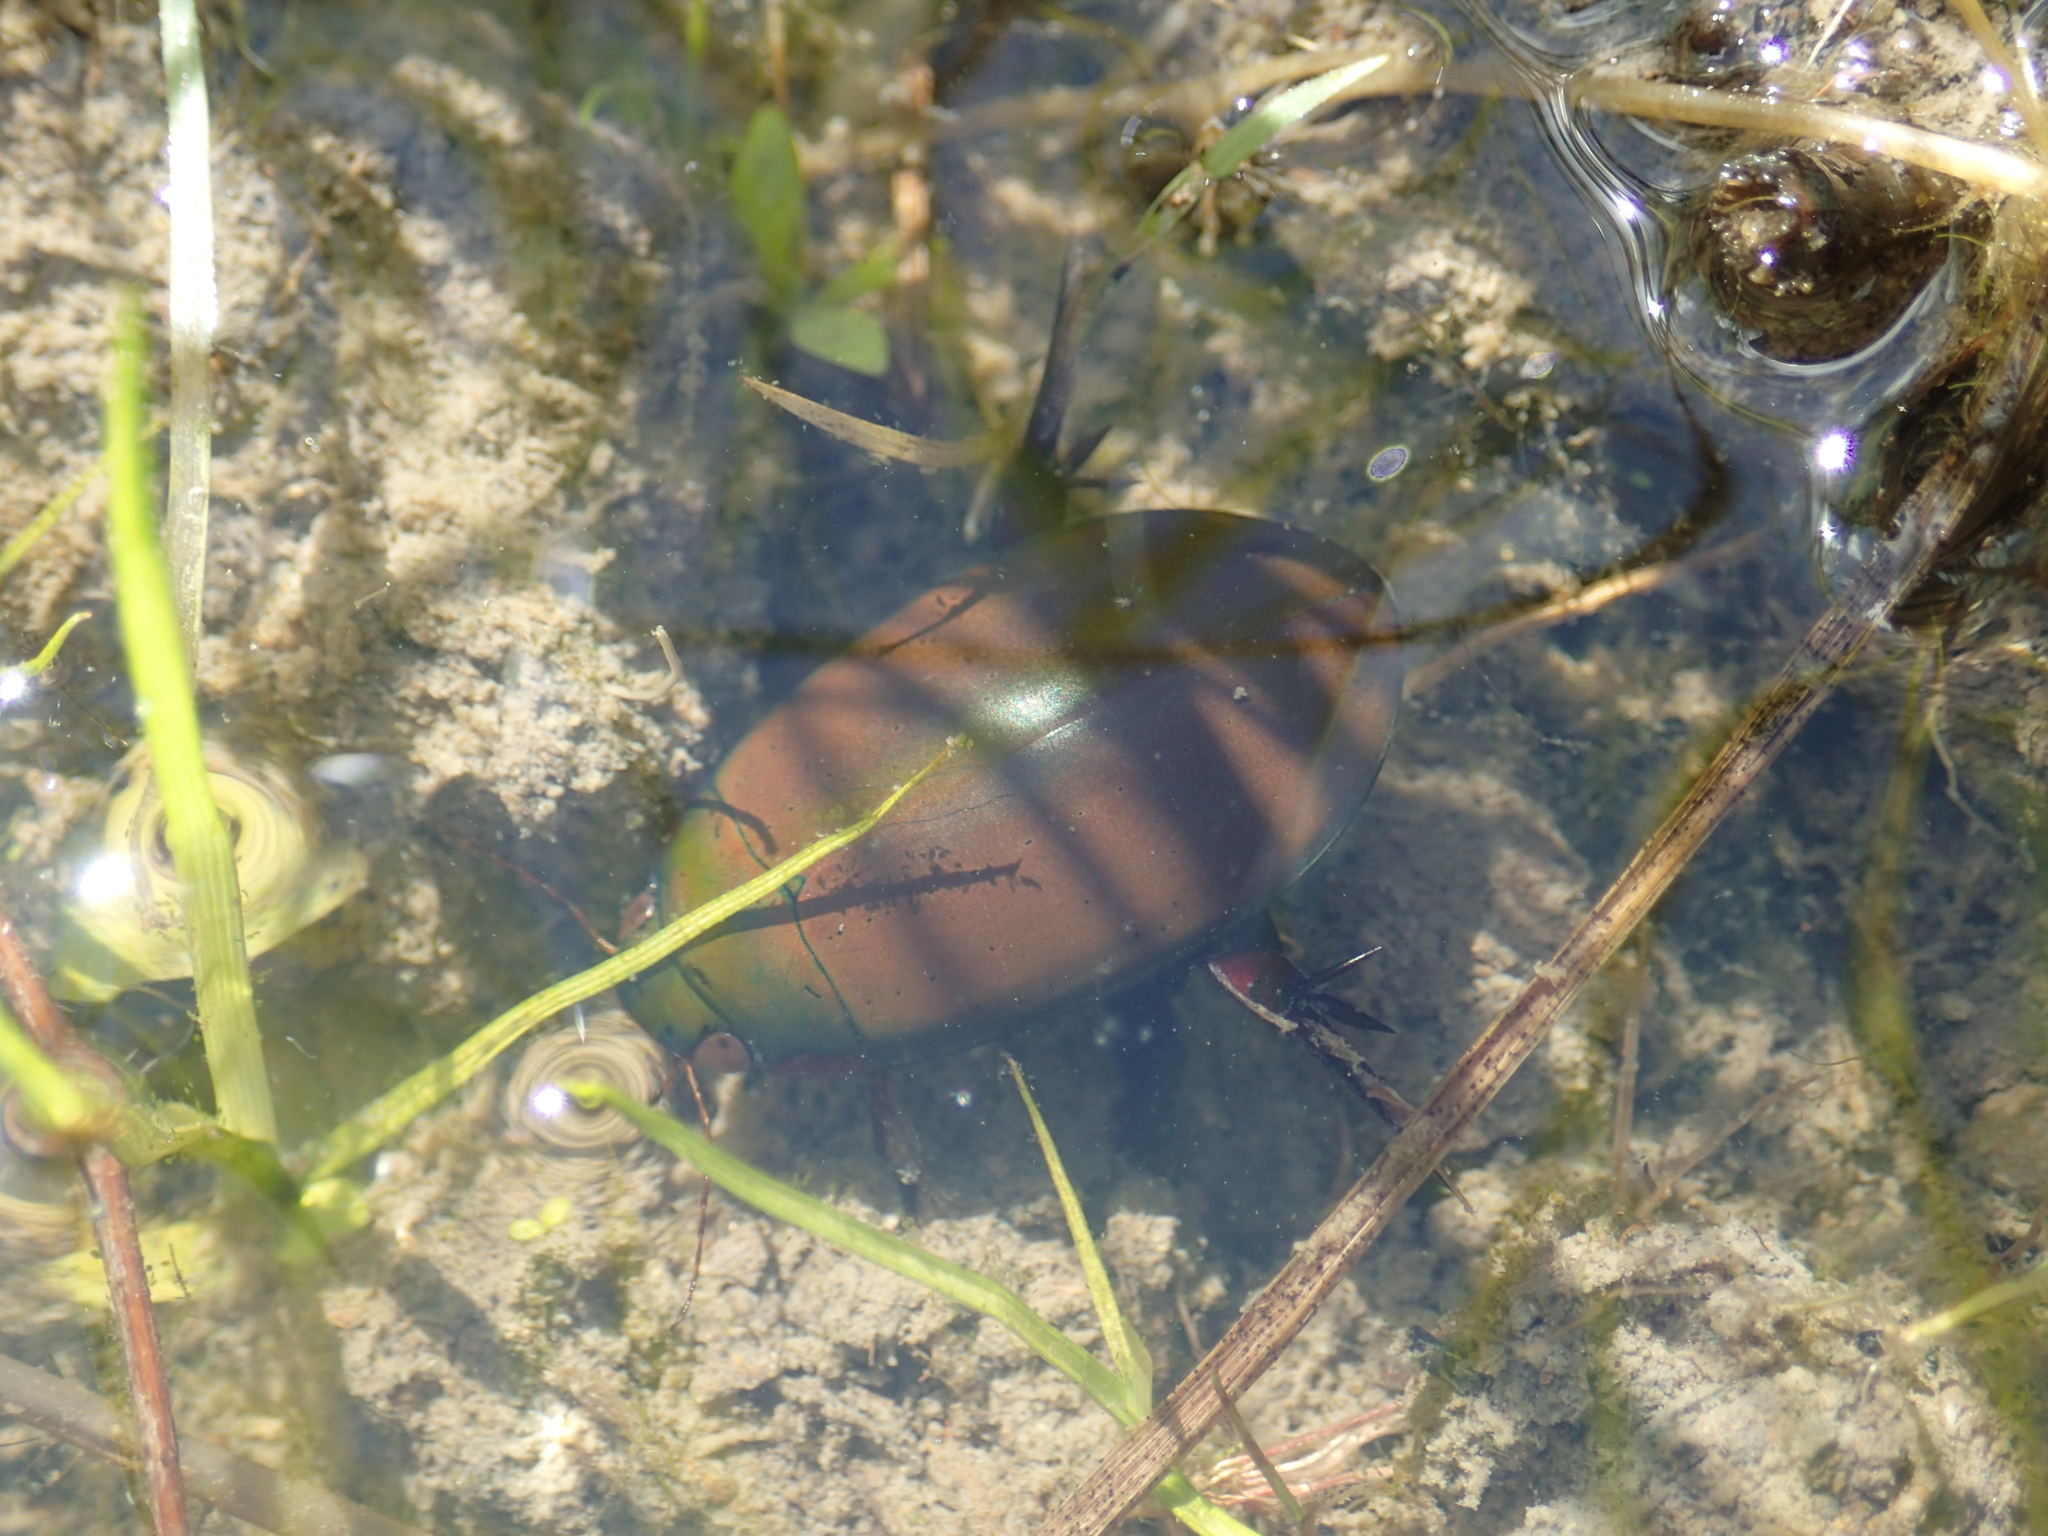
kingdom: Animalia
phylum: Arthropoda
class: Insecta
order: Coleoptera
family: Dytiscidae
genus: Cybister
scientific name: Cybister sugillatus
